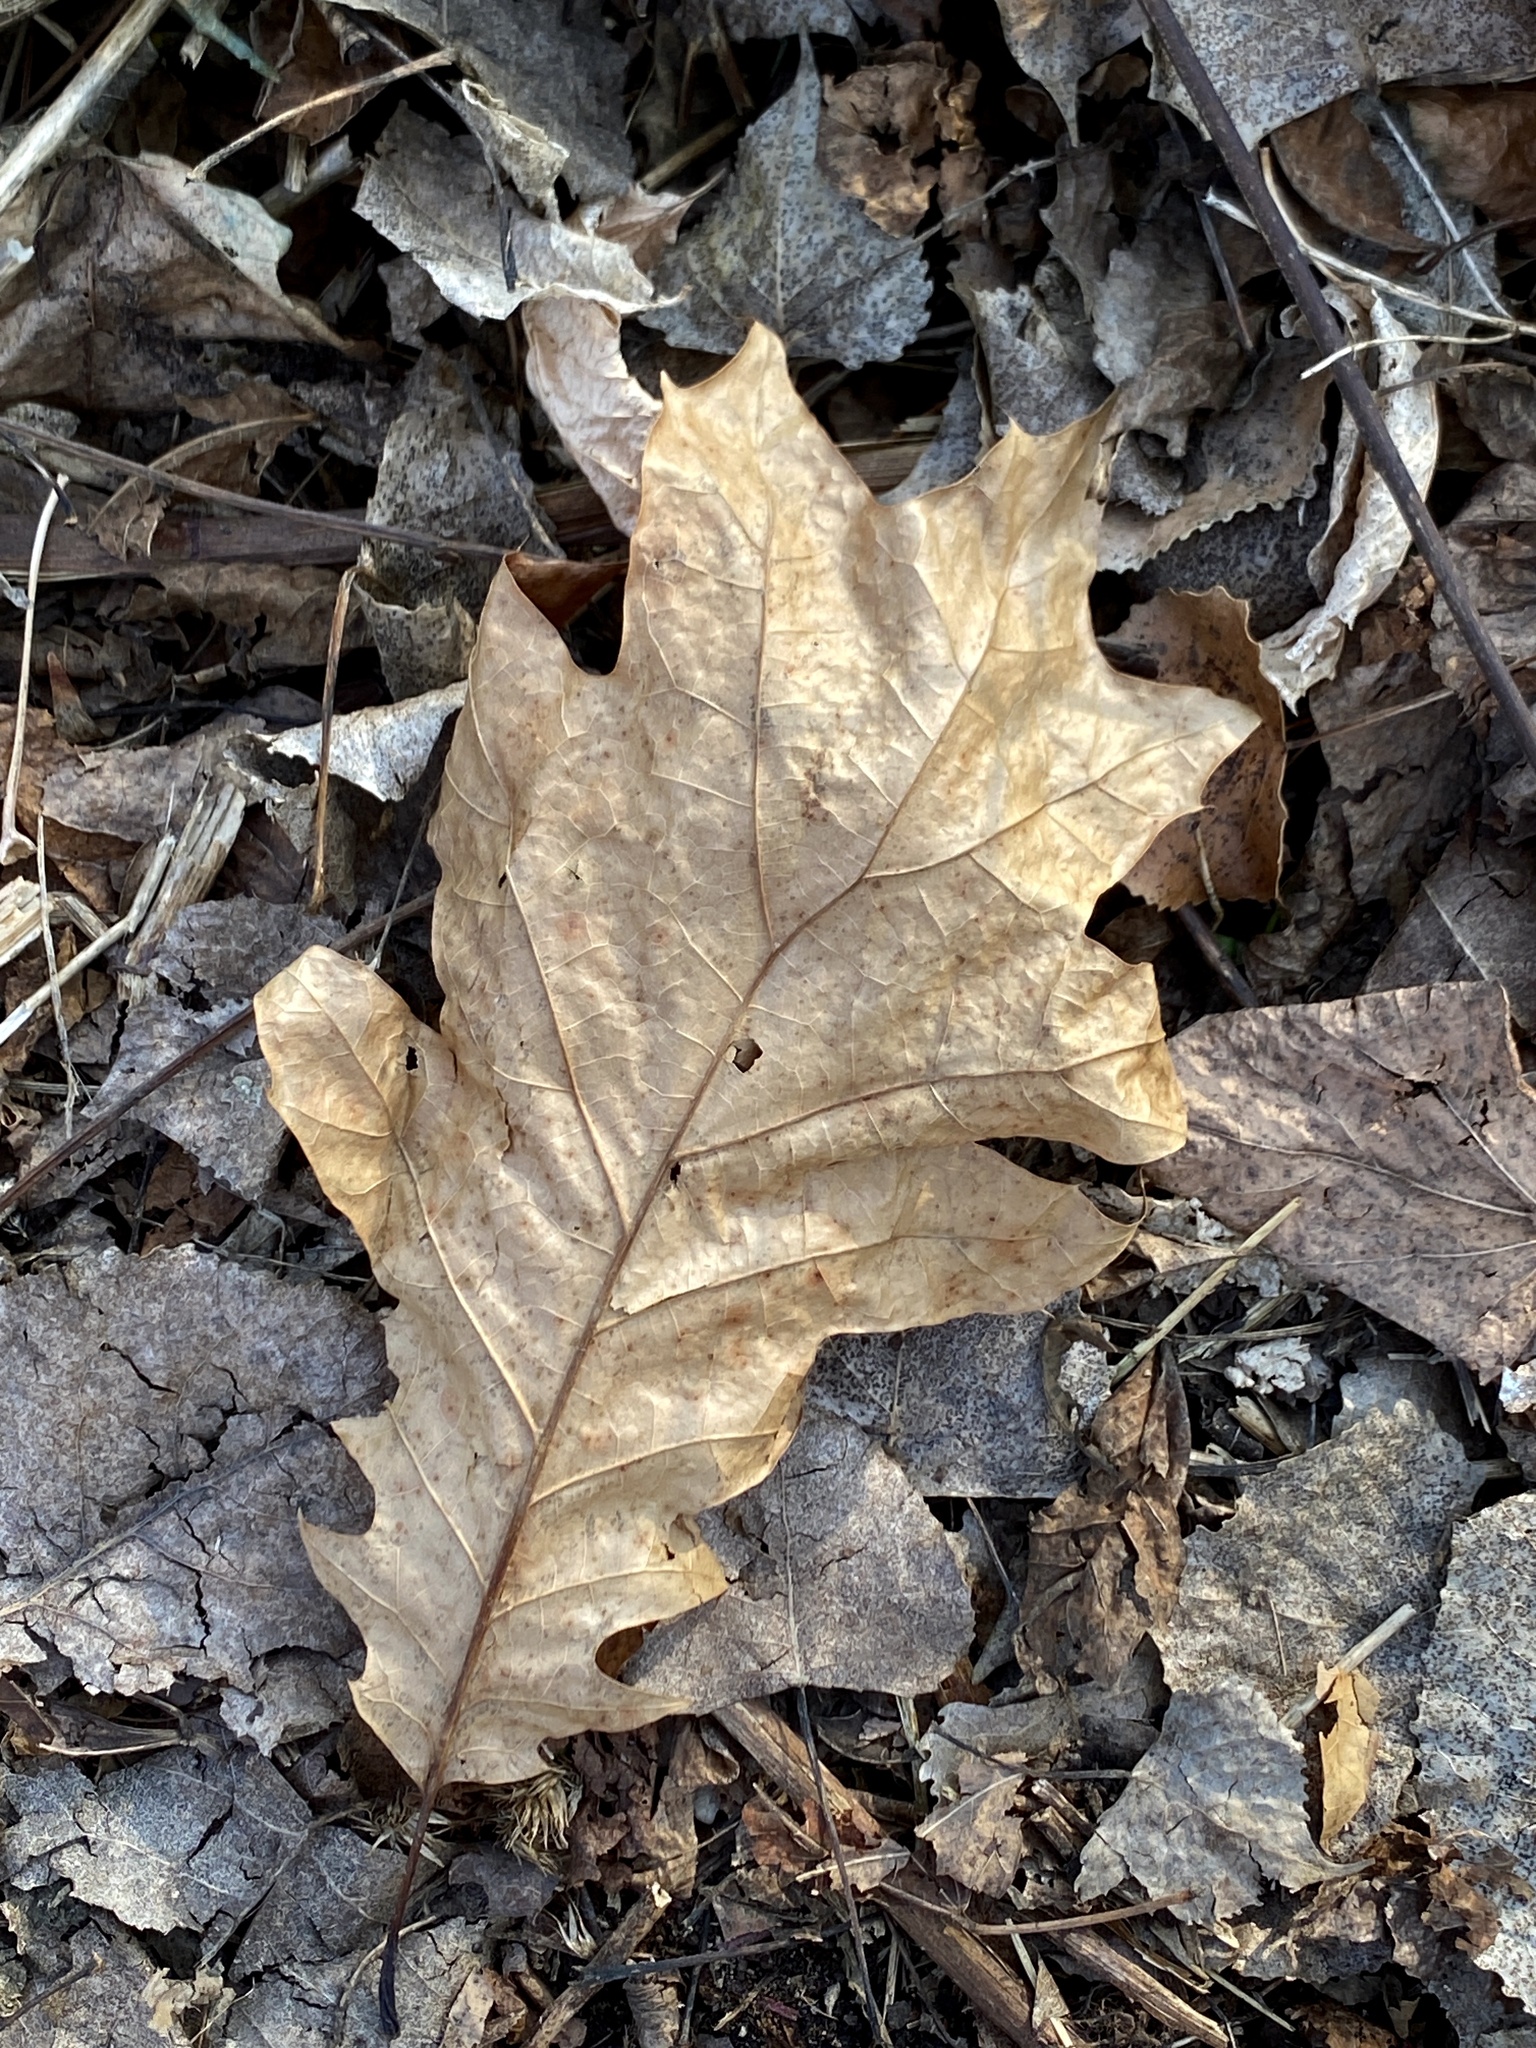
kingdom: Plantae
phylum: Tracheophyta
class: Magnoliopsida
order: Fagales
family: Fagaceae
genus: Quercus
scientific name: Quercus rubra
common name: Red oak
